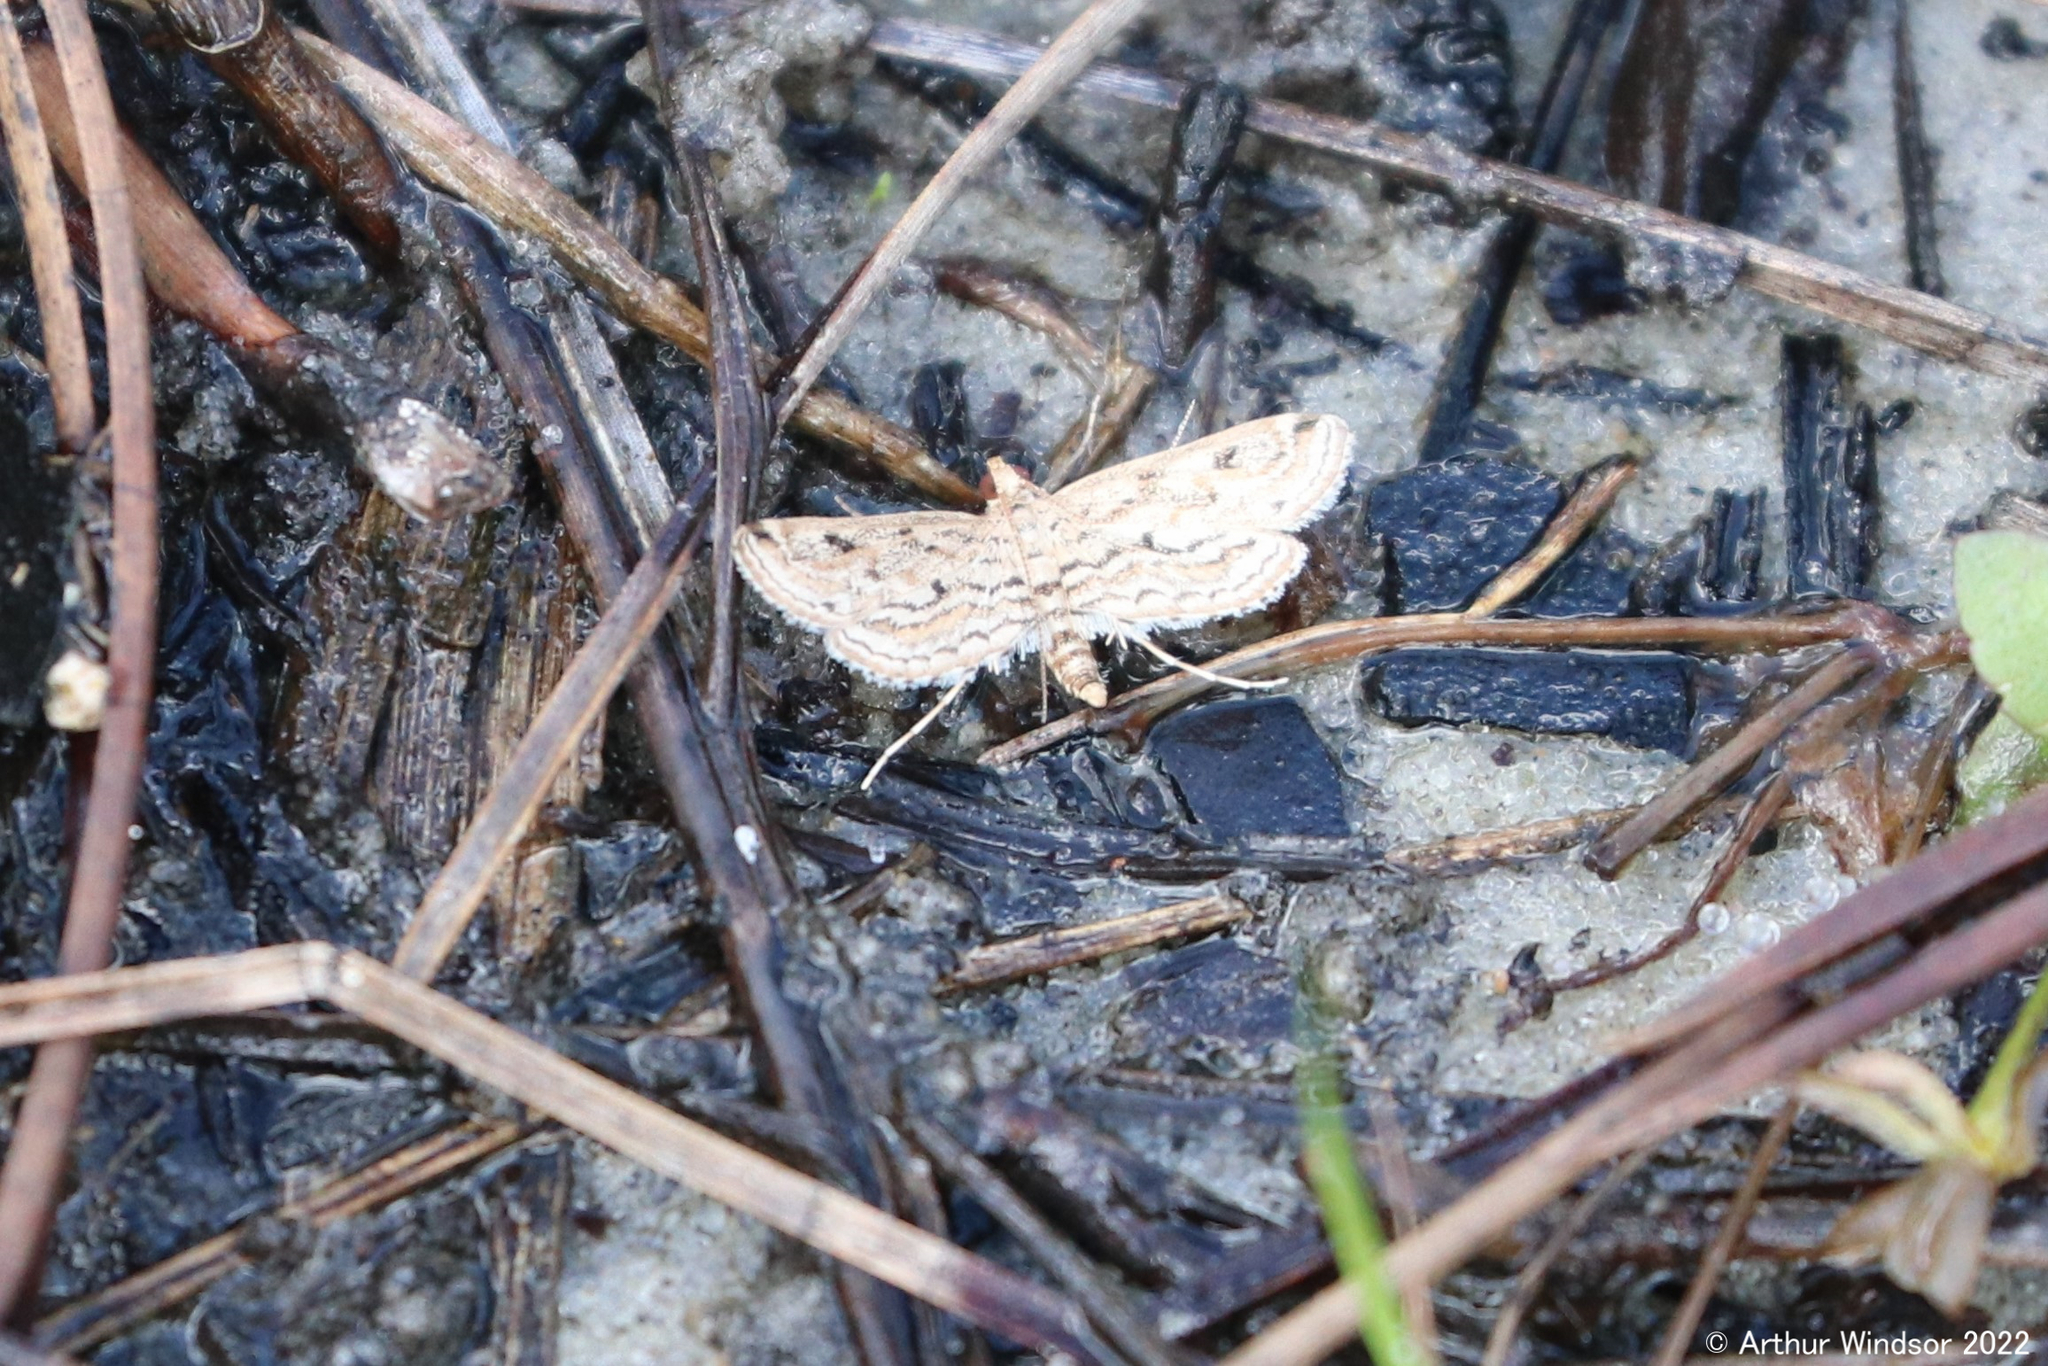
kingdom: Animalia
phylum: Arthropoda
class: Insecta
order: Lepidoptera
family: Crambidae
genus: Parapoynx
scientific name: Parapoynx allionealis
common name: Bladderwort casemaker
